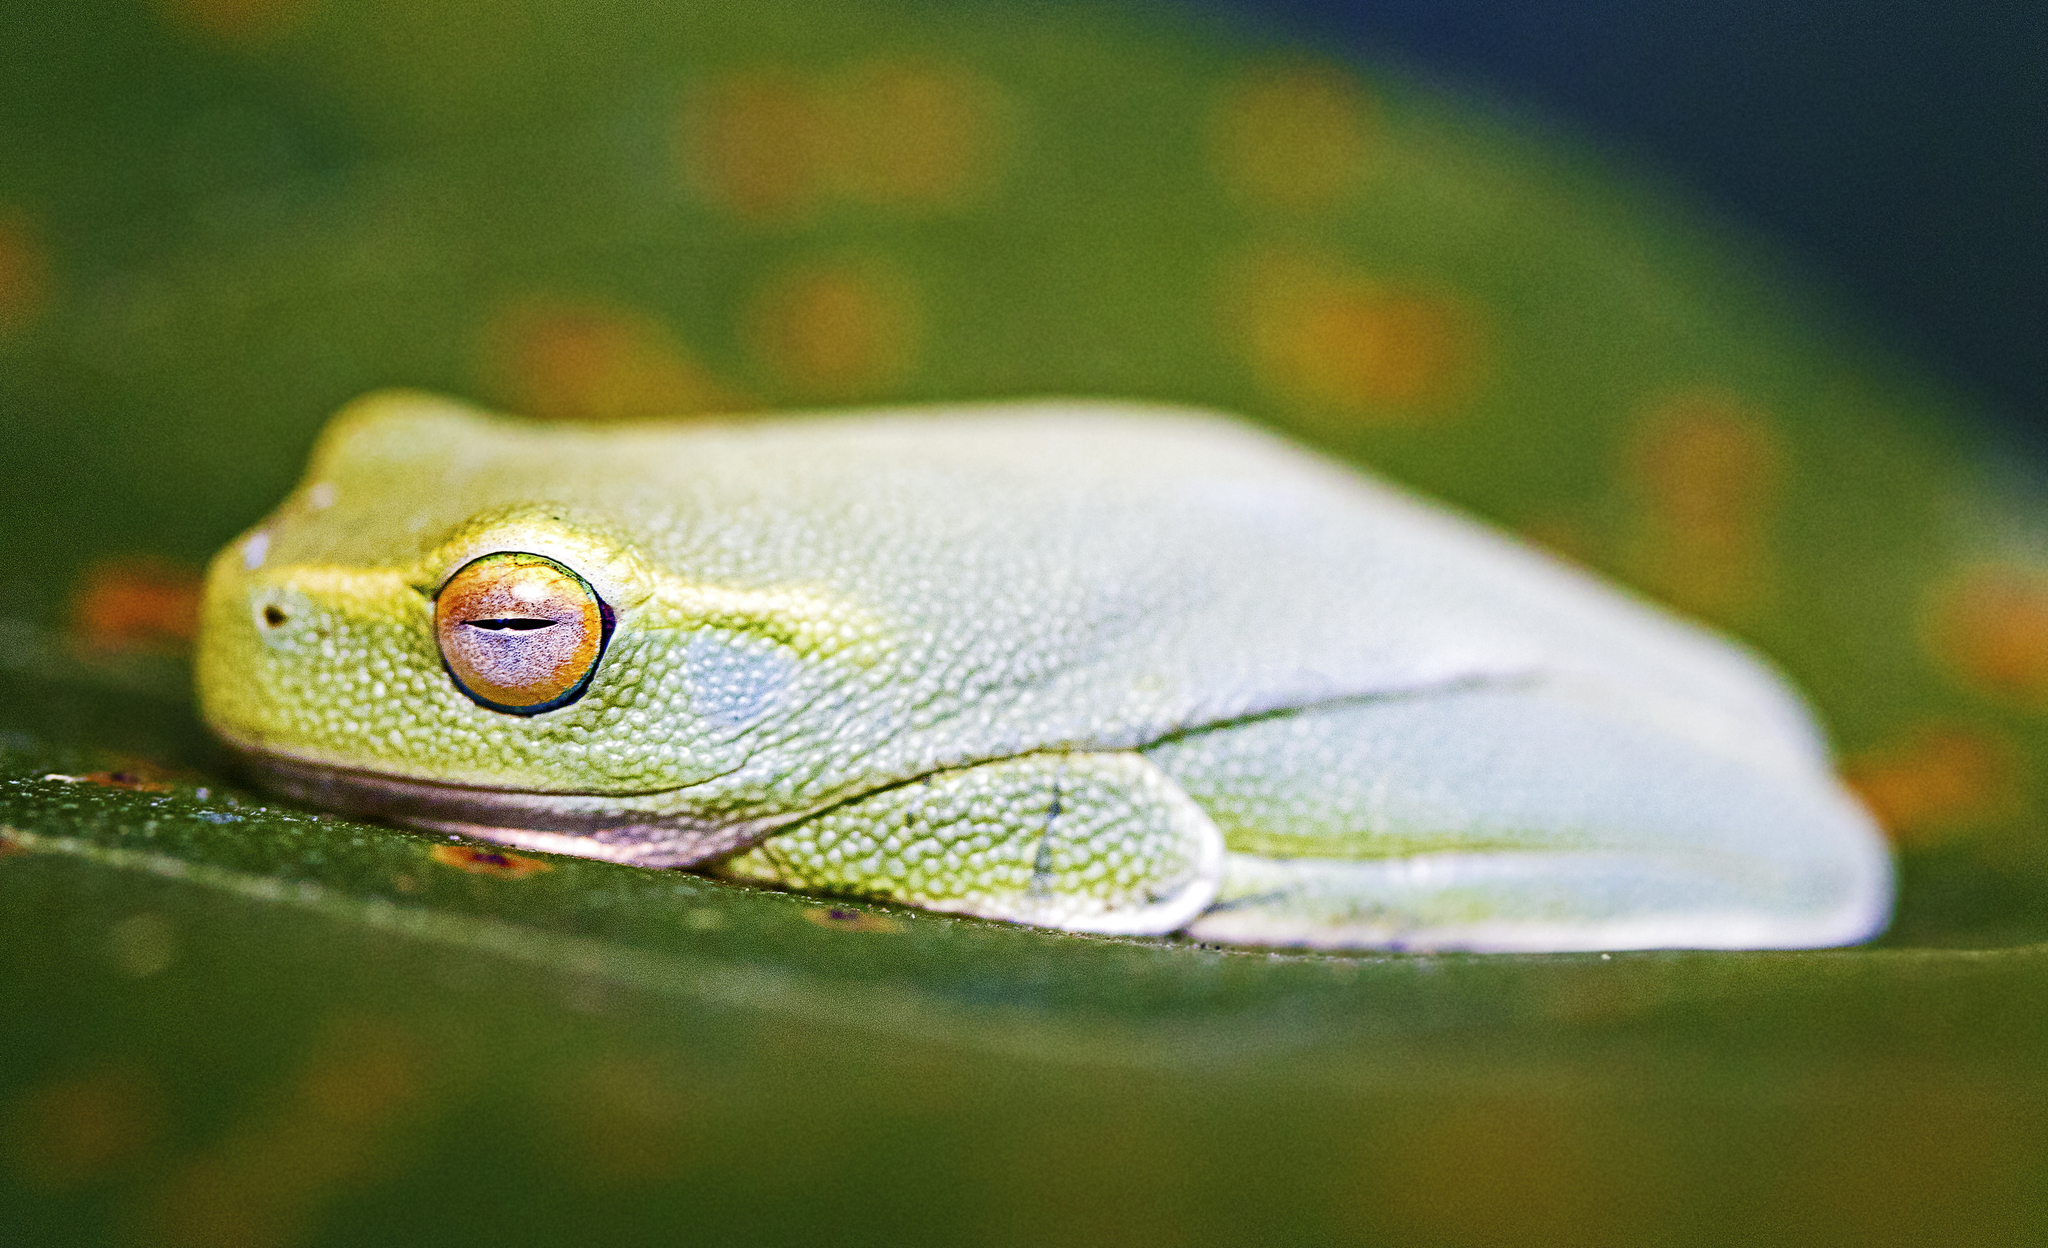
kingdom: Animalia
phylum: Chordata
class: Amphibia
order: Anura
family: Pelodryadidae
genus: Ranoidea
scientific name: Ranoidea gracilenta
